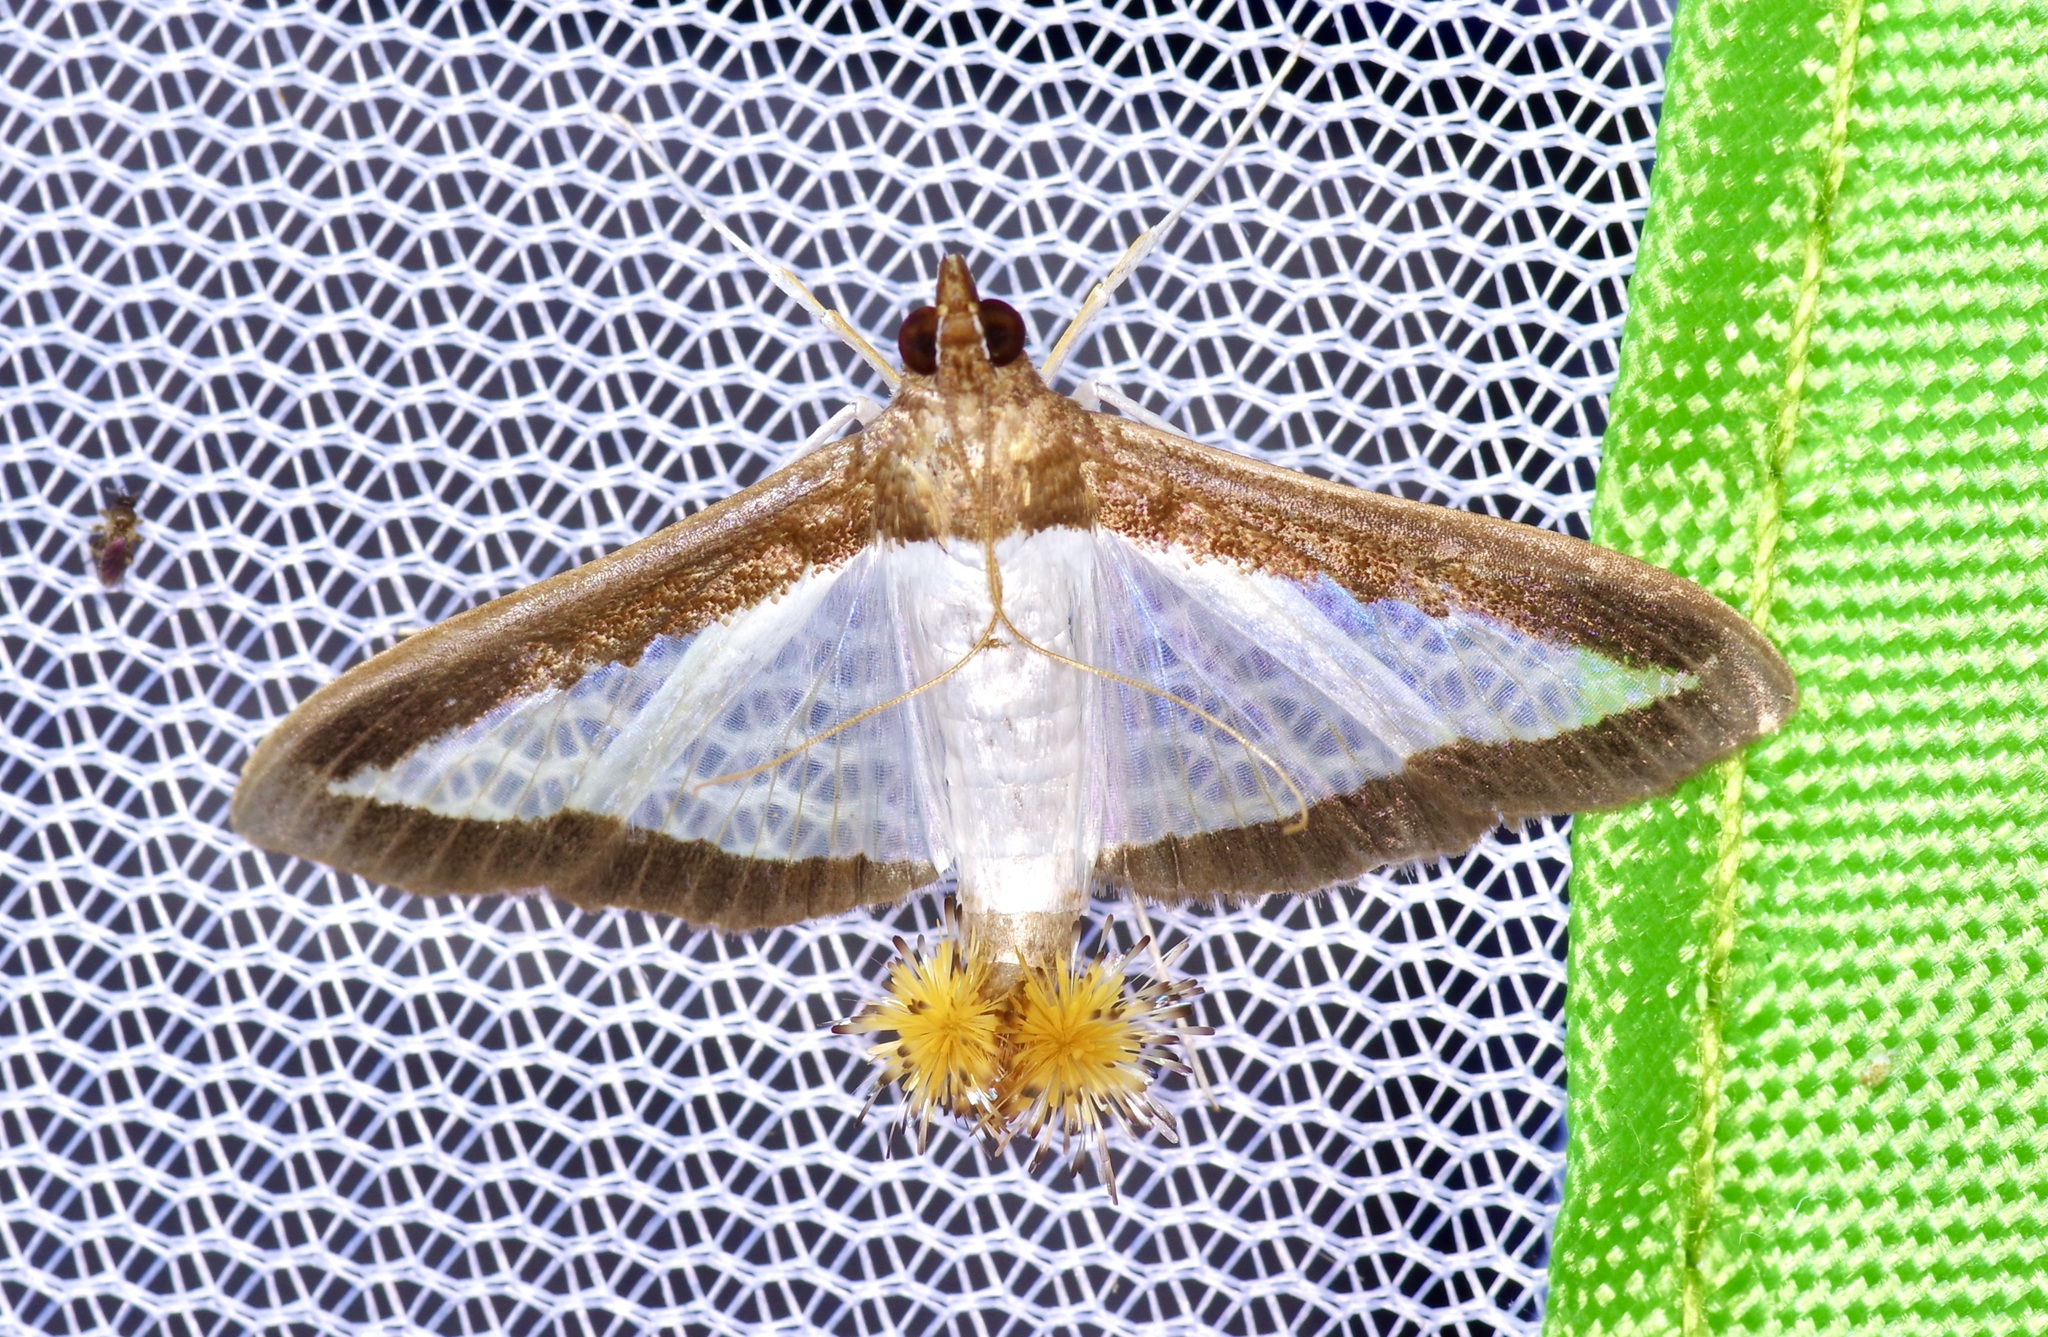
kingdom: Animalia
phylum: Arthropoda
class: Insecta
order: Lepidoptera
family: Crambidae
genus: Diaphania
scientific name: Diaphania hyalinata
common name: Melonworm
